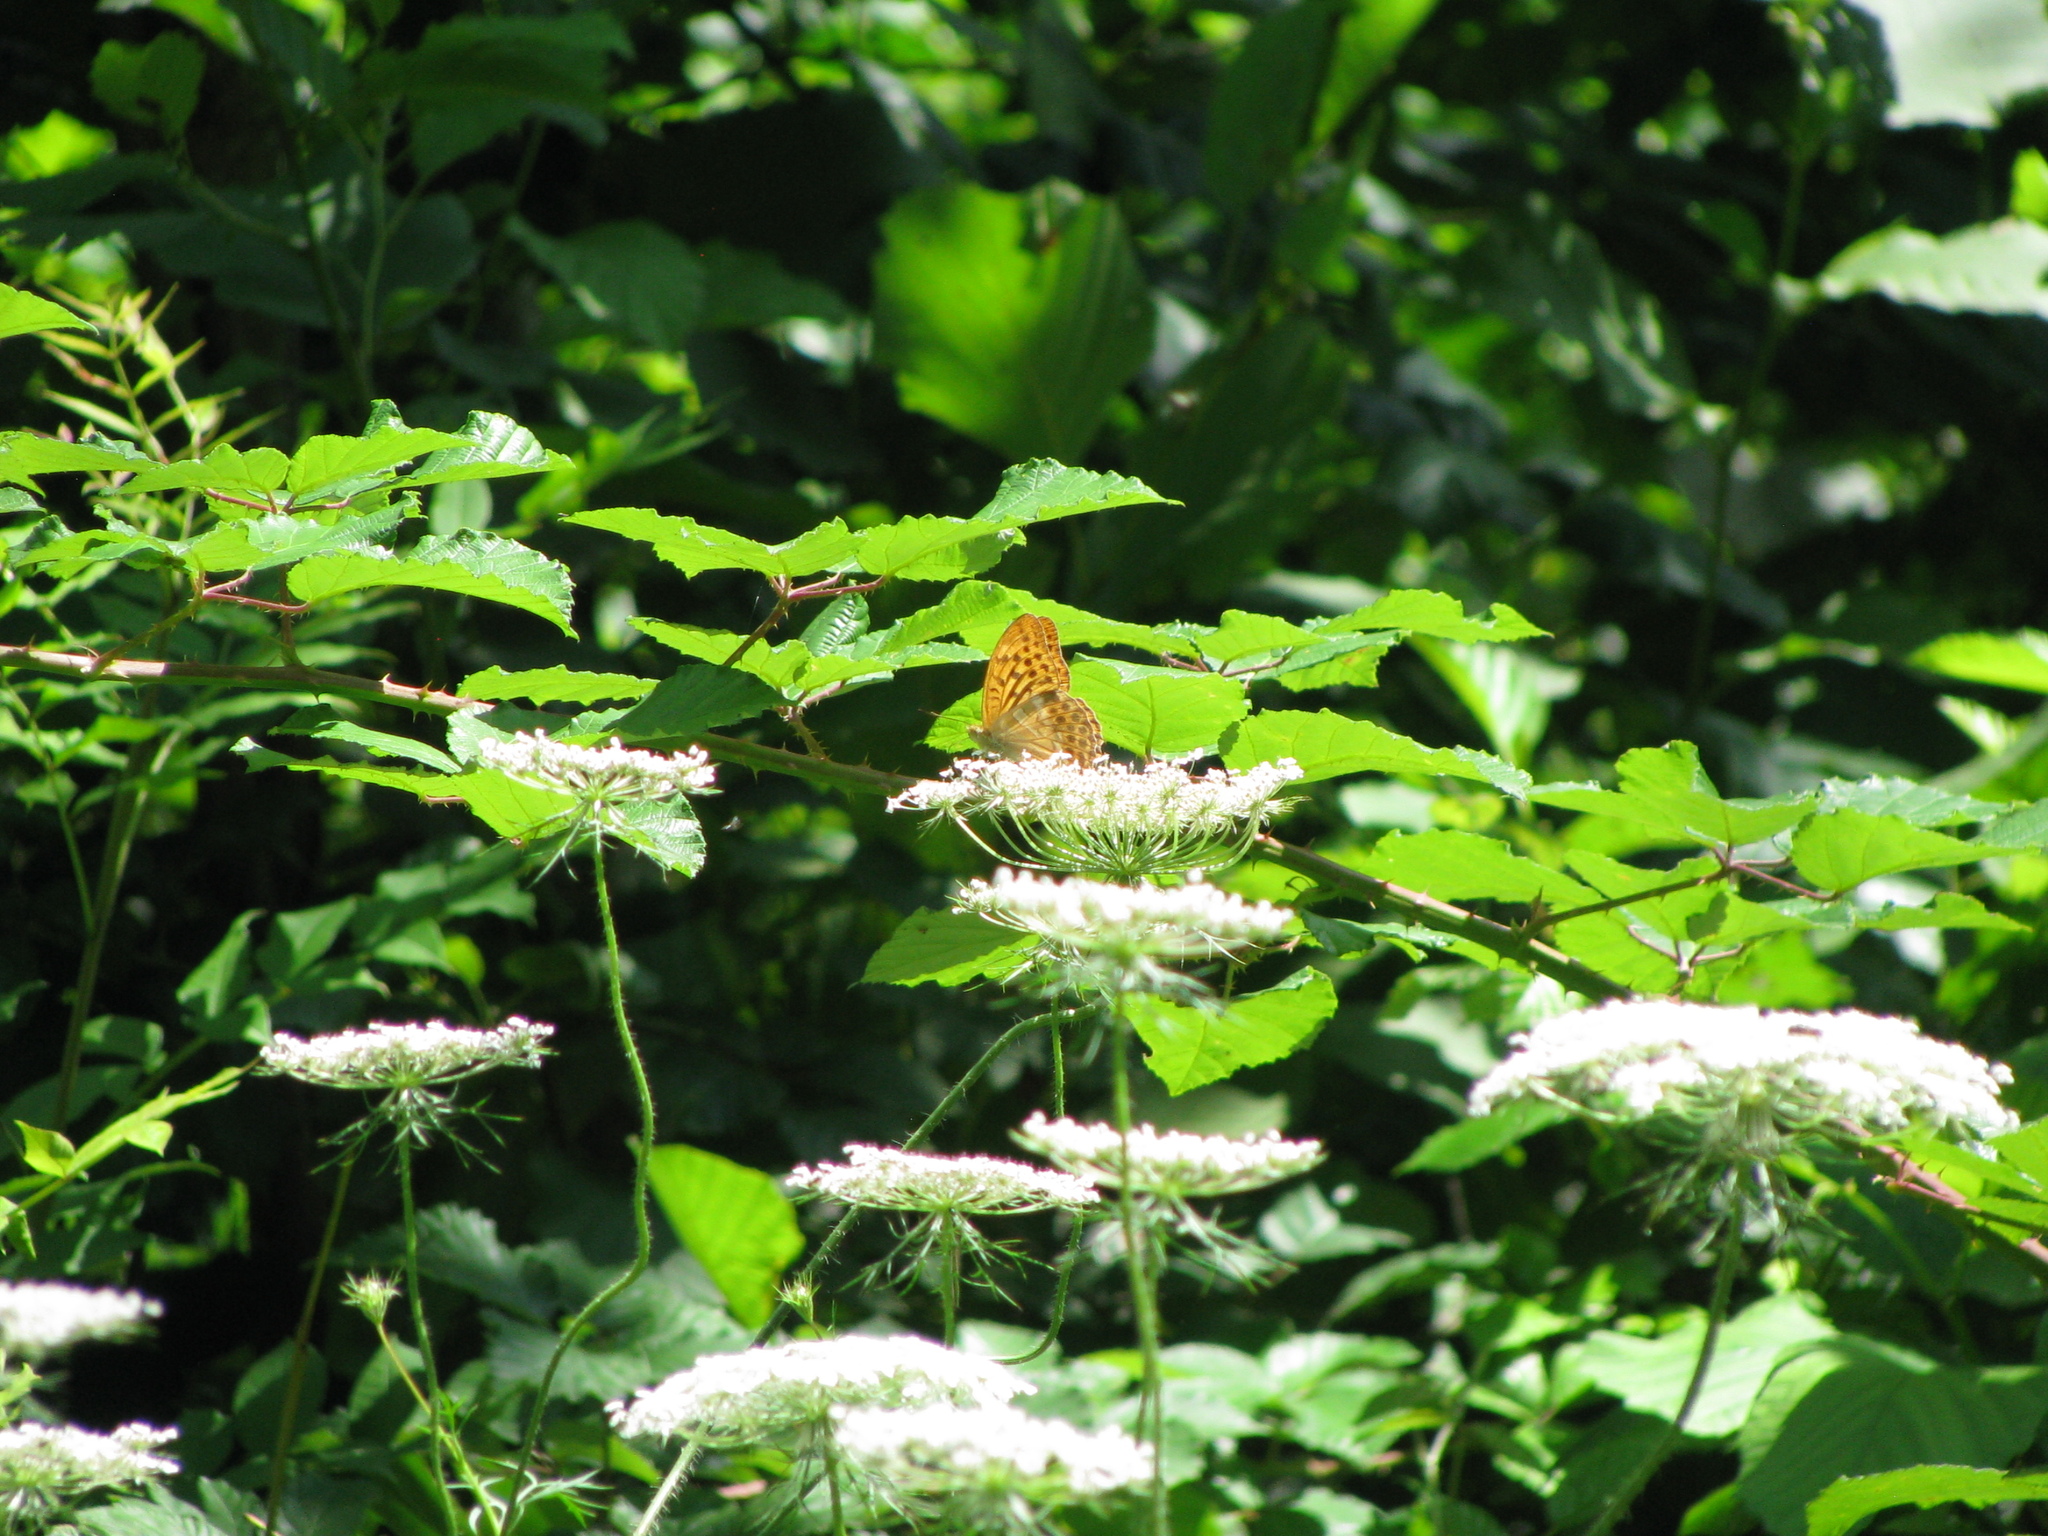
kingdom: Animalia
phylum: Arthropoda
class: Insecta
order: Lepidoptera
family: Nymphalidae
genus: Argynnis
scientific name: Argynnis paphia
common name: Silver-washed fritillary
